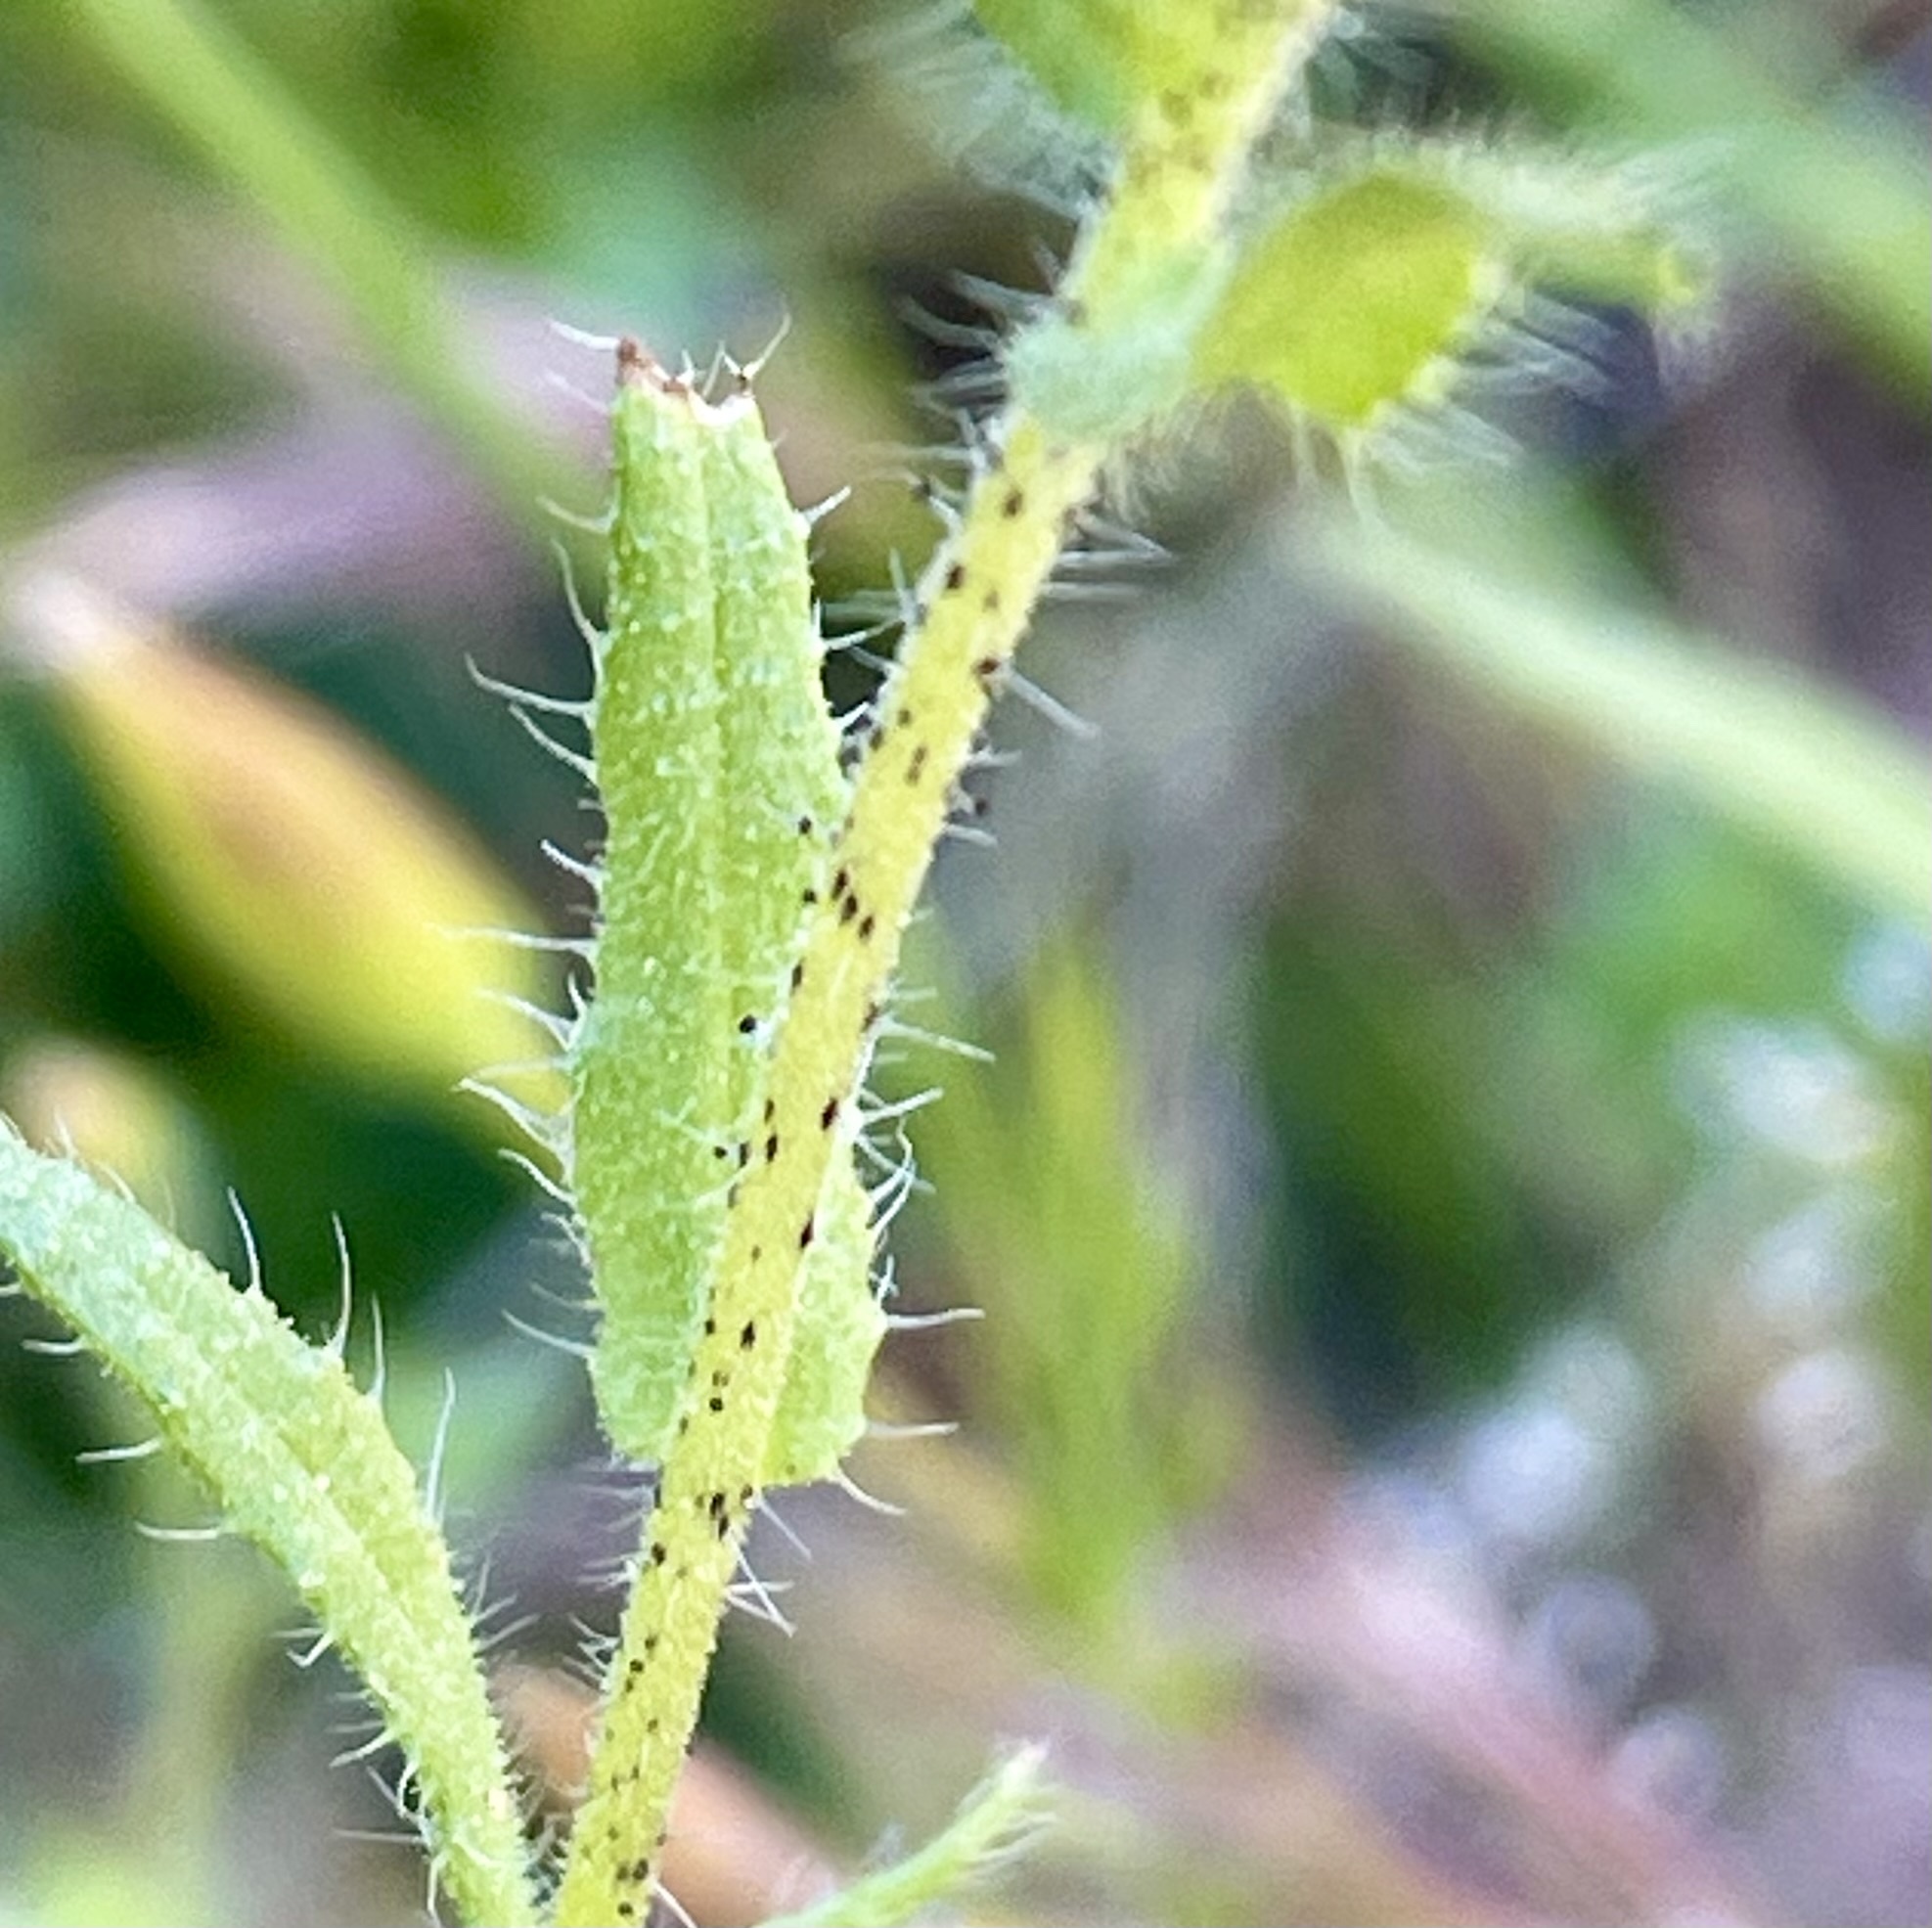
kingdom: Plantae
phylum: Tracheophyta
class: Magnoliopsida
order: Asterales
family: Asteraceae
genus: Layia
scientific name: Layia hieracioides
